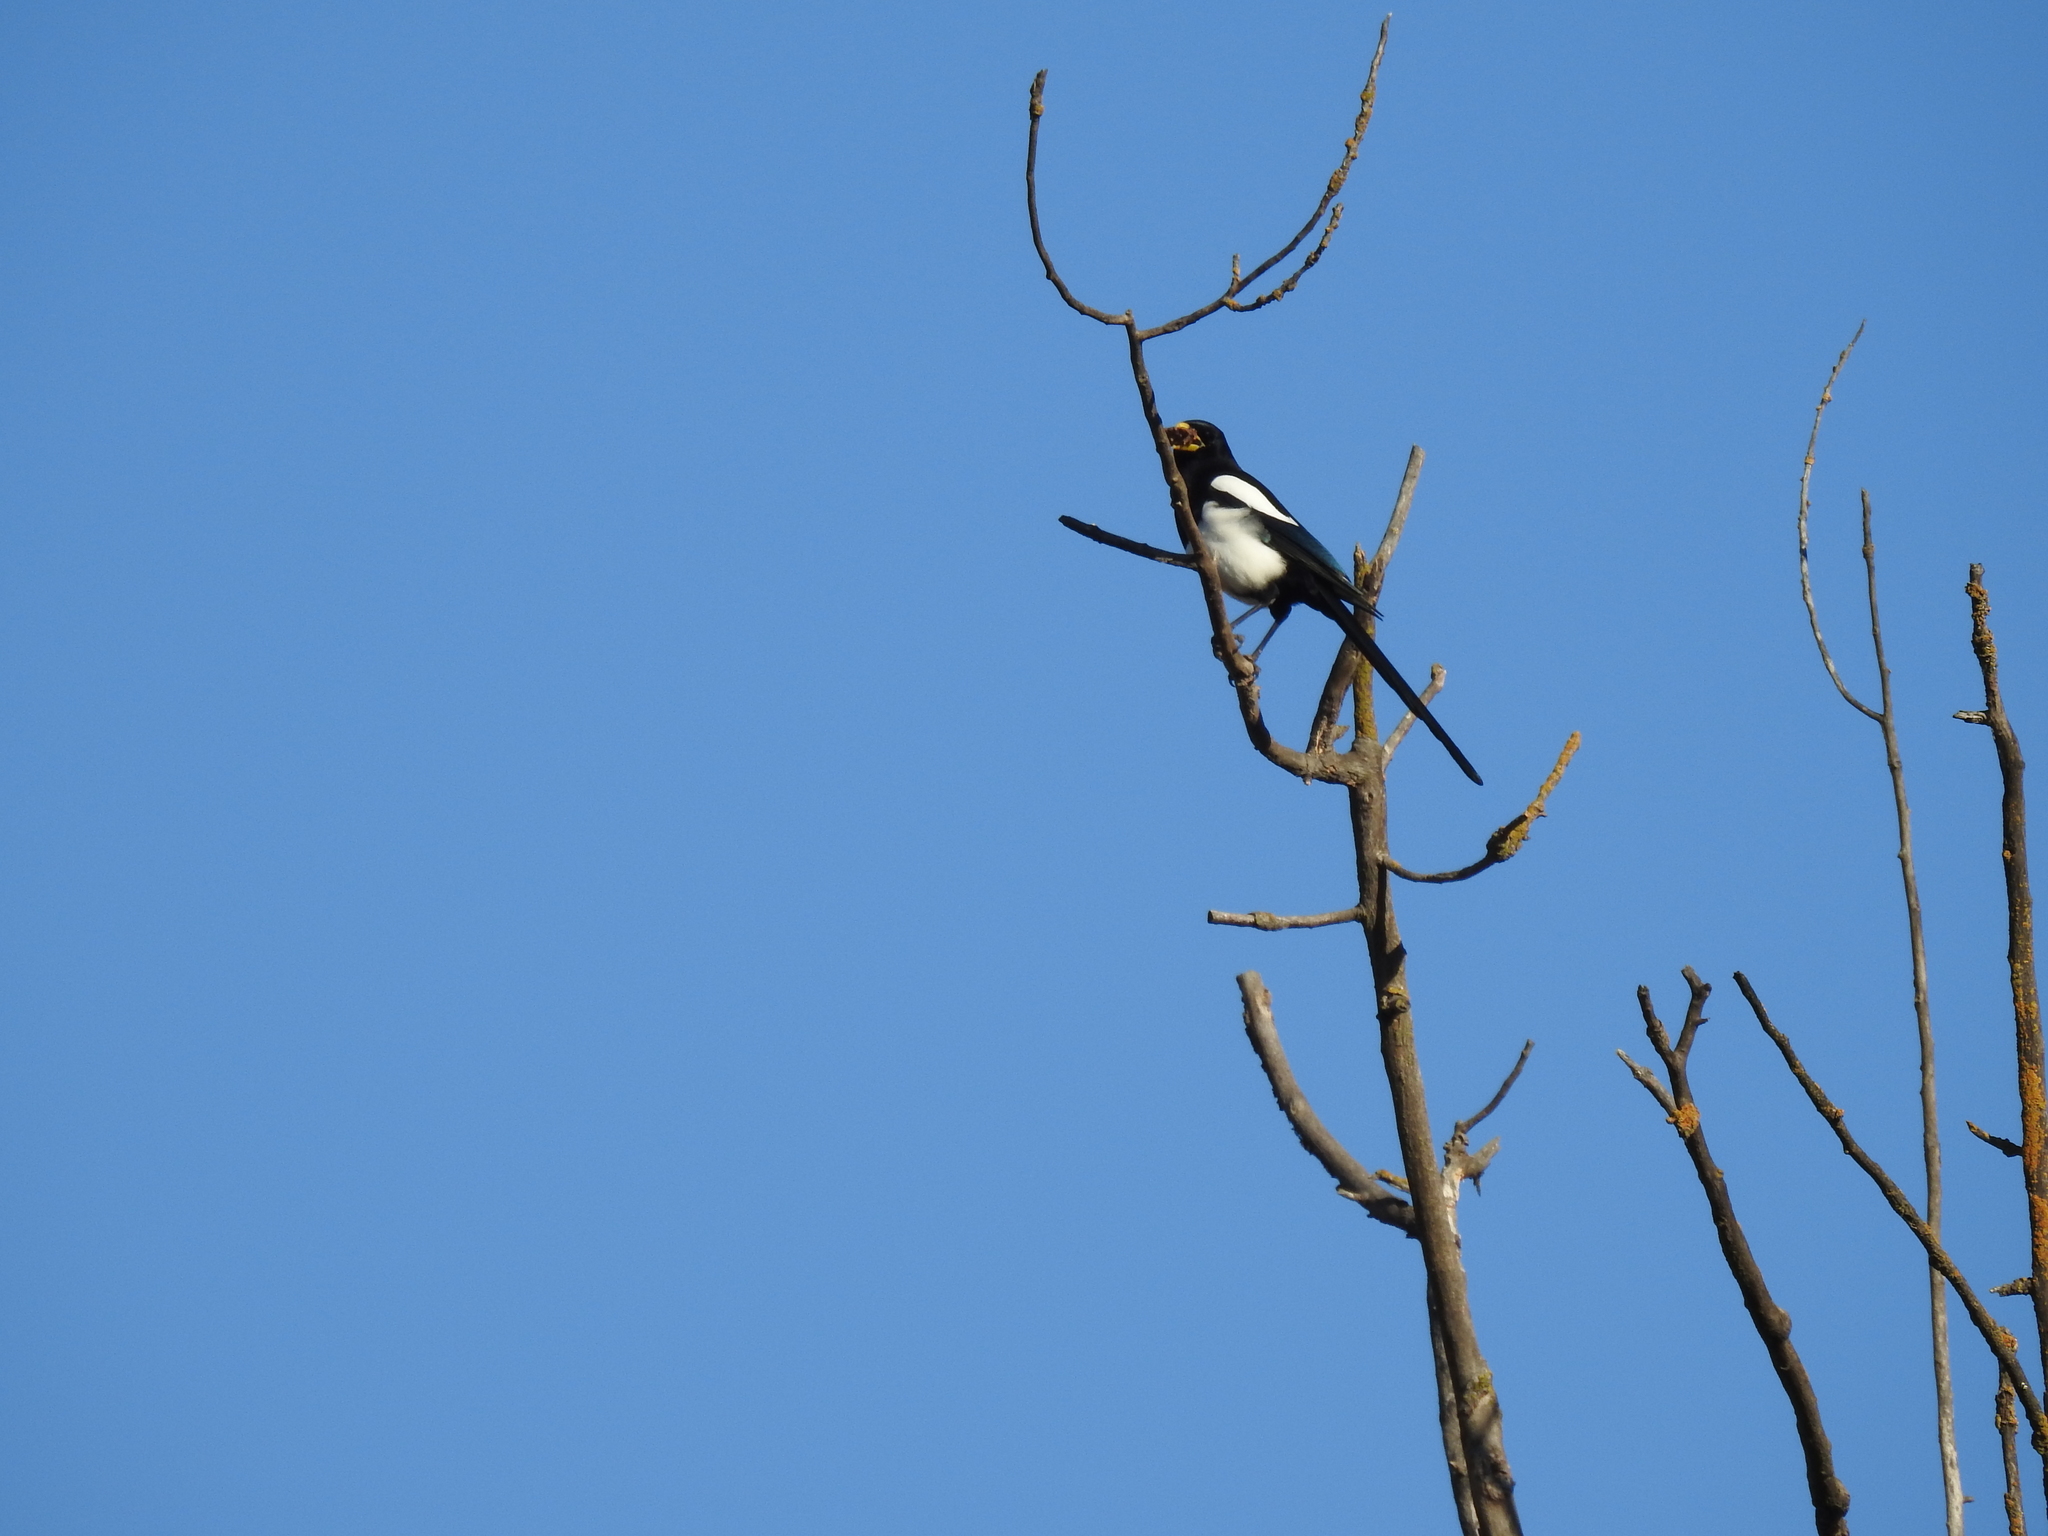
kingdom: Animalia
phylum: Chordata
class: Aves
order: Passeriformes
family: Corvidae
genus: Pica
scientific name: Pica nuttalli
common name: Yellow-billed magpie
